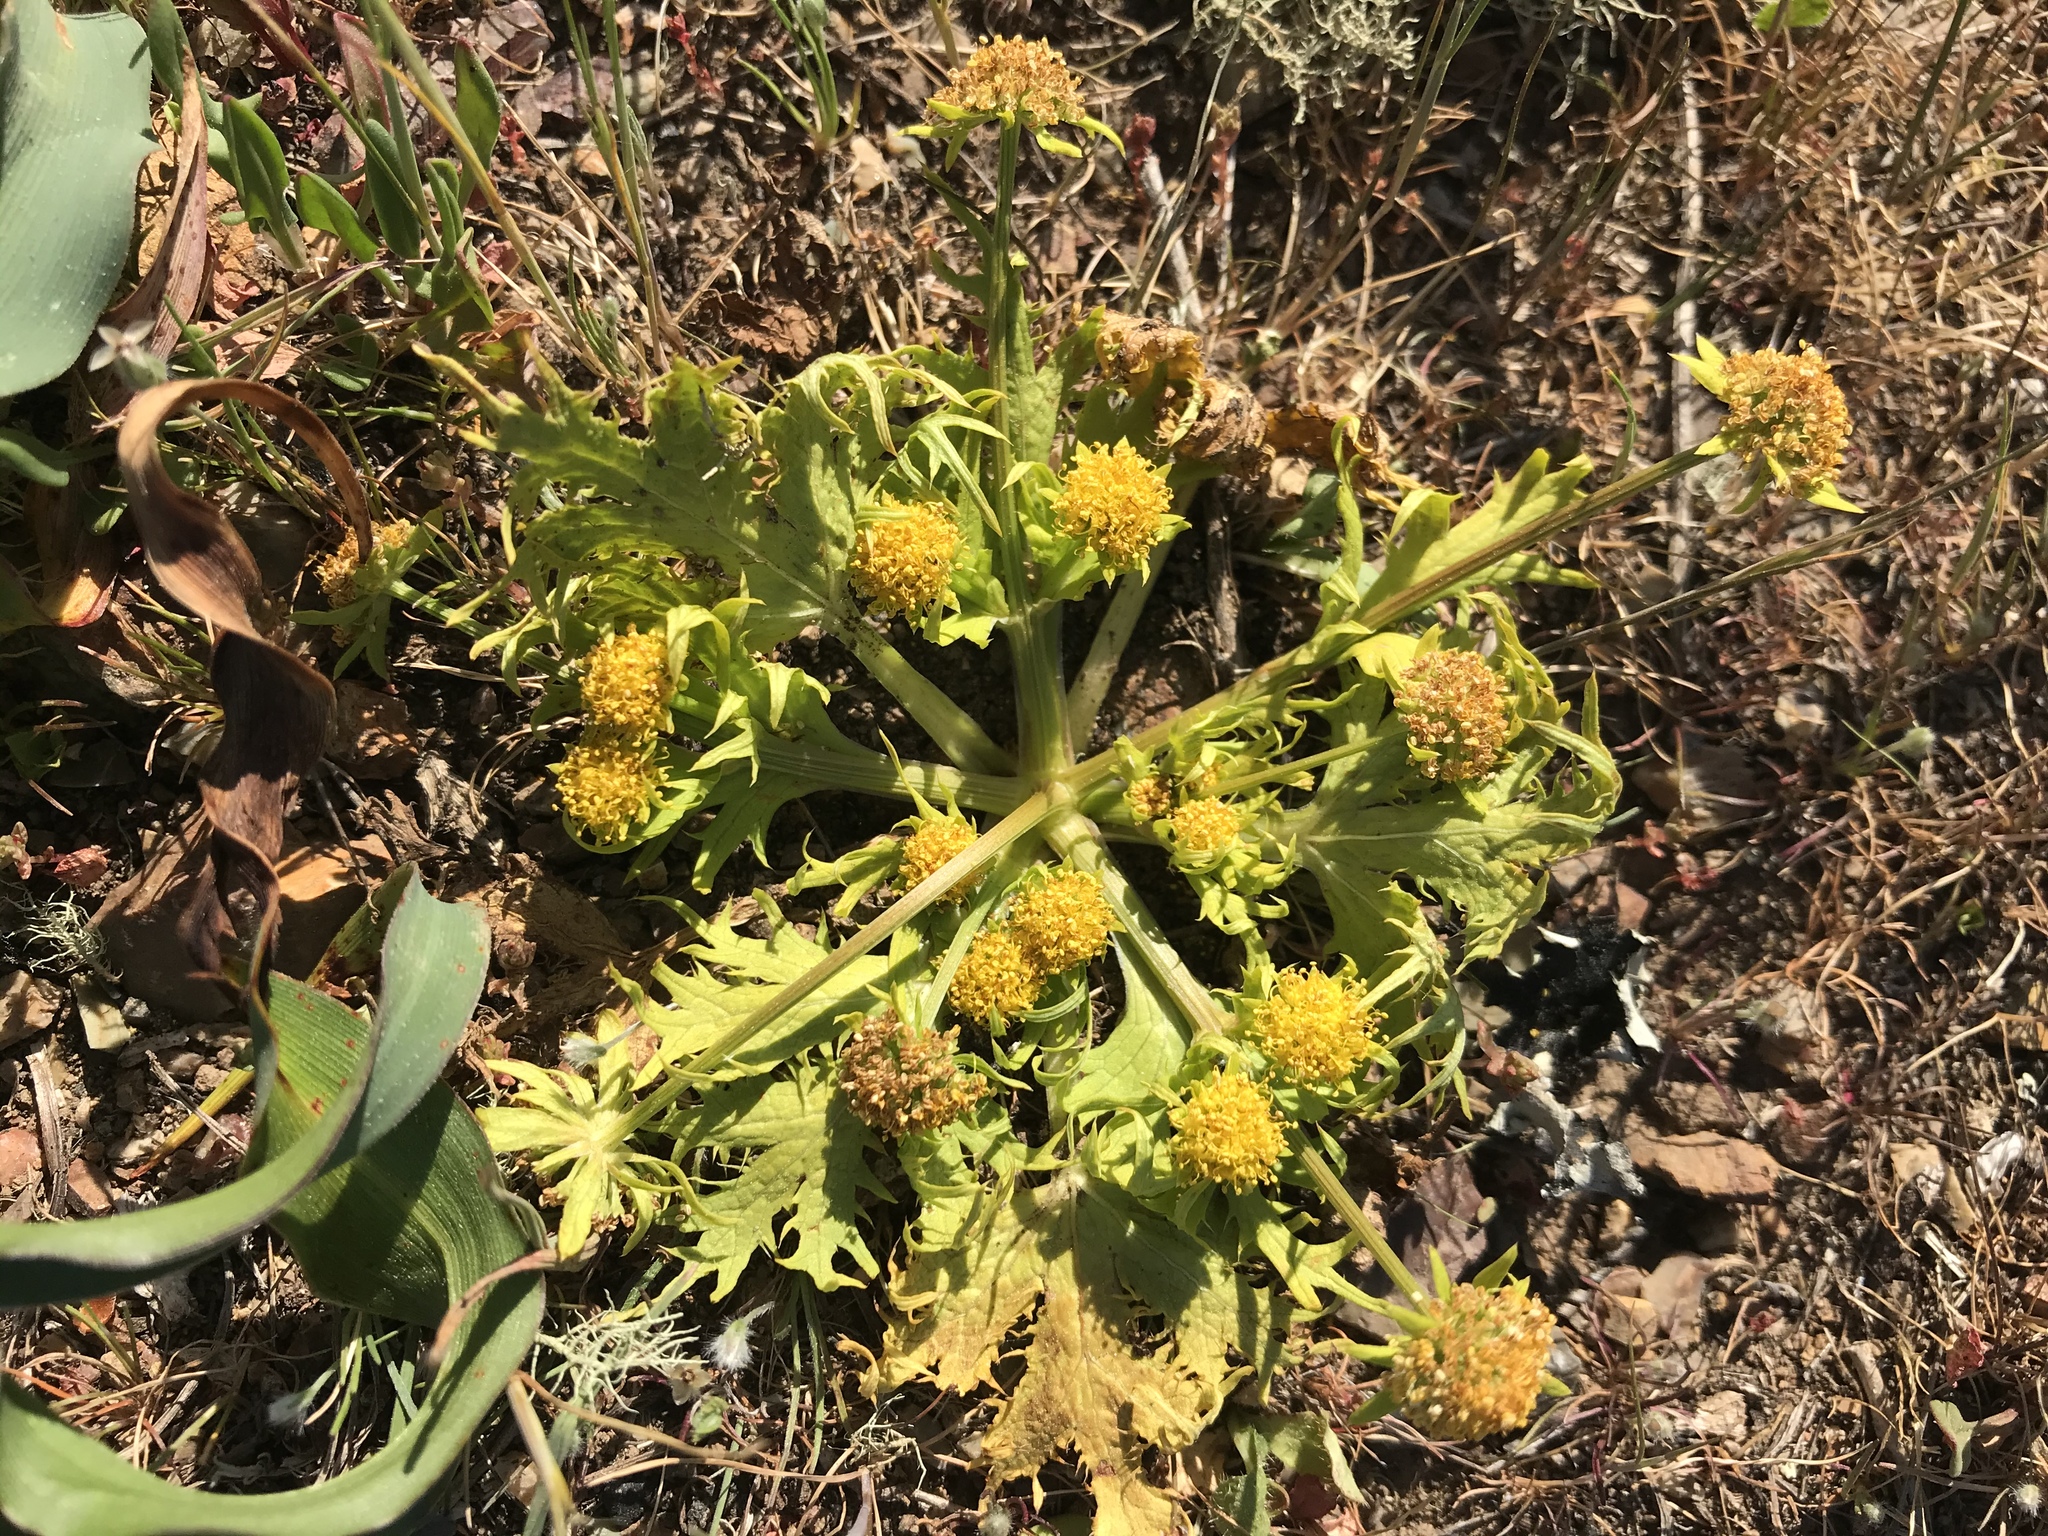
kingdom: Plantae
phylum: Tracheophyta
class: Magnoliopsida
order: Apiales
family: Apiaceae
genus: Sanicula
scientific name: Sanicula arctopoides
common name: Footsteps-of-spring
